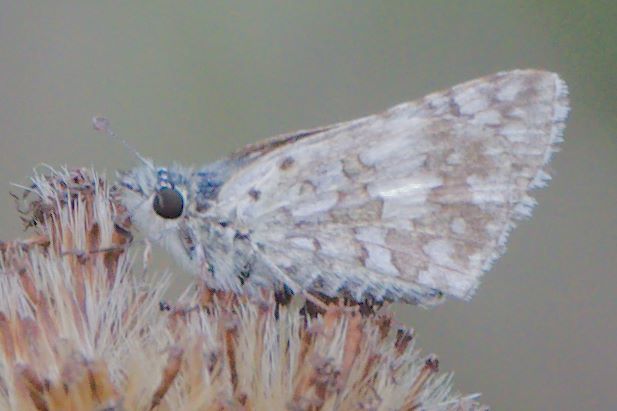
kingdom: Animalia
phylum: Arthropoda
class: Insecta
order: Lepidoptera
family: Hesperiidae
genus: Burnsius
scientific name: Burnsius
